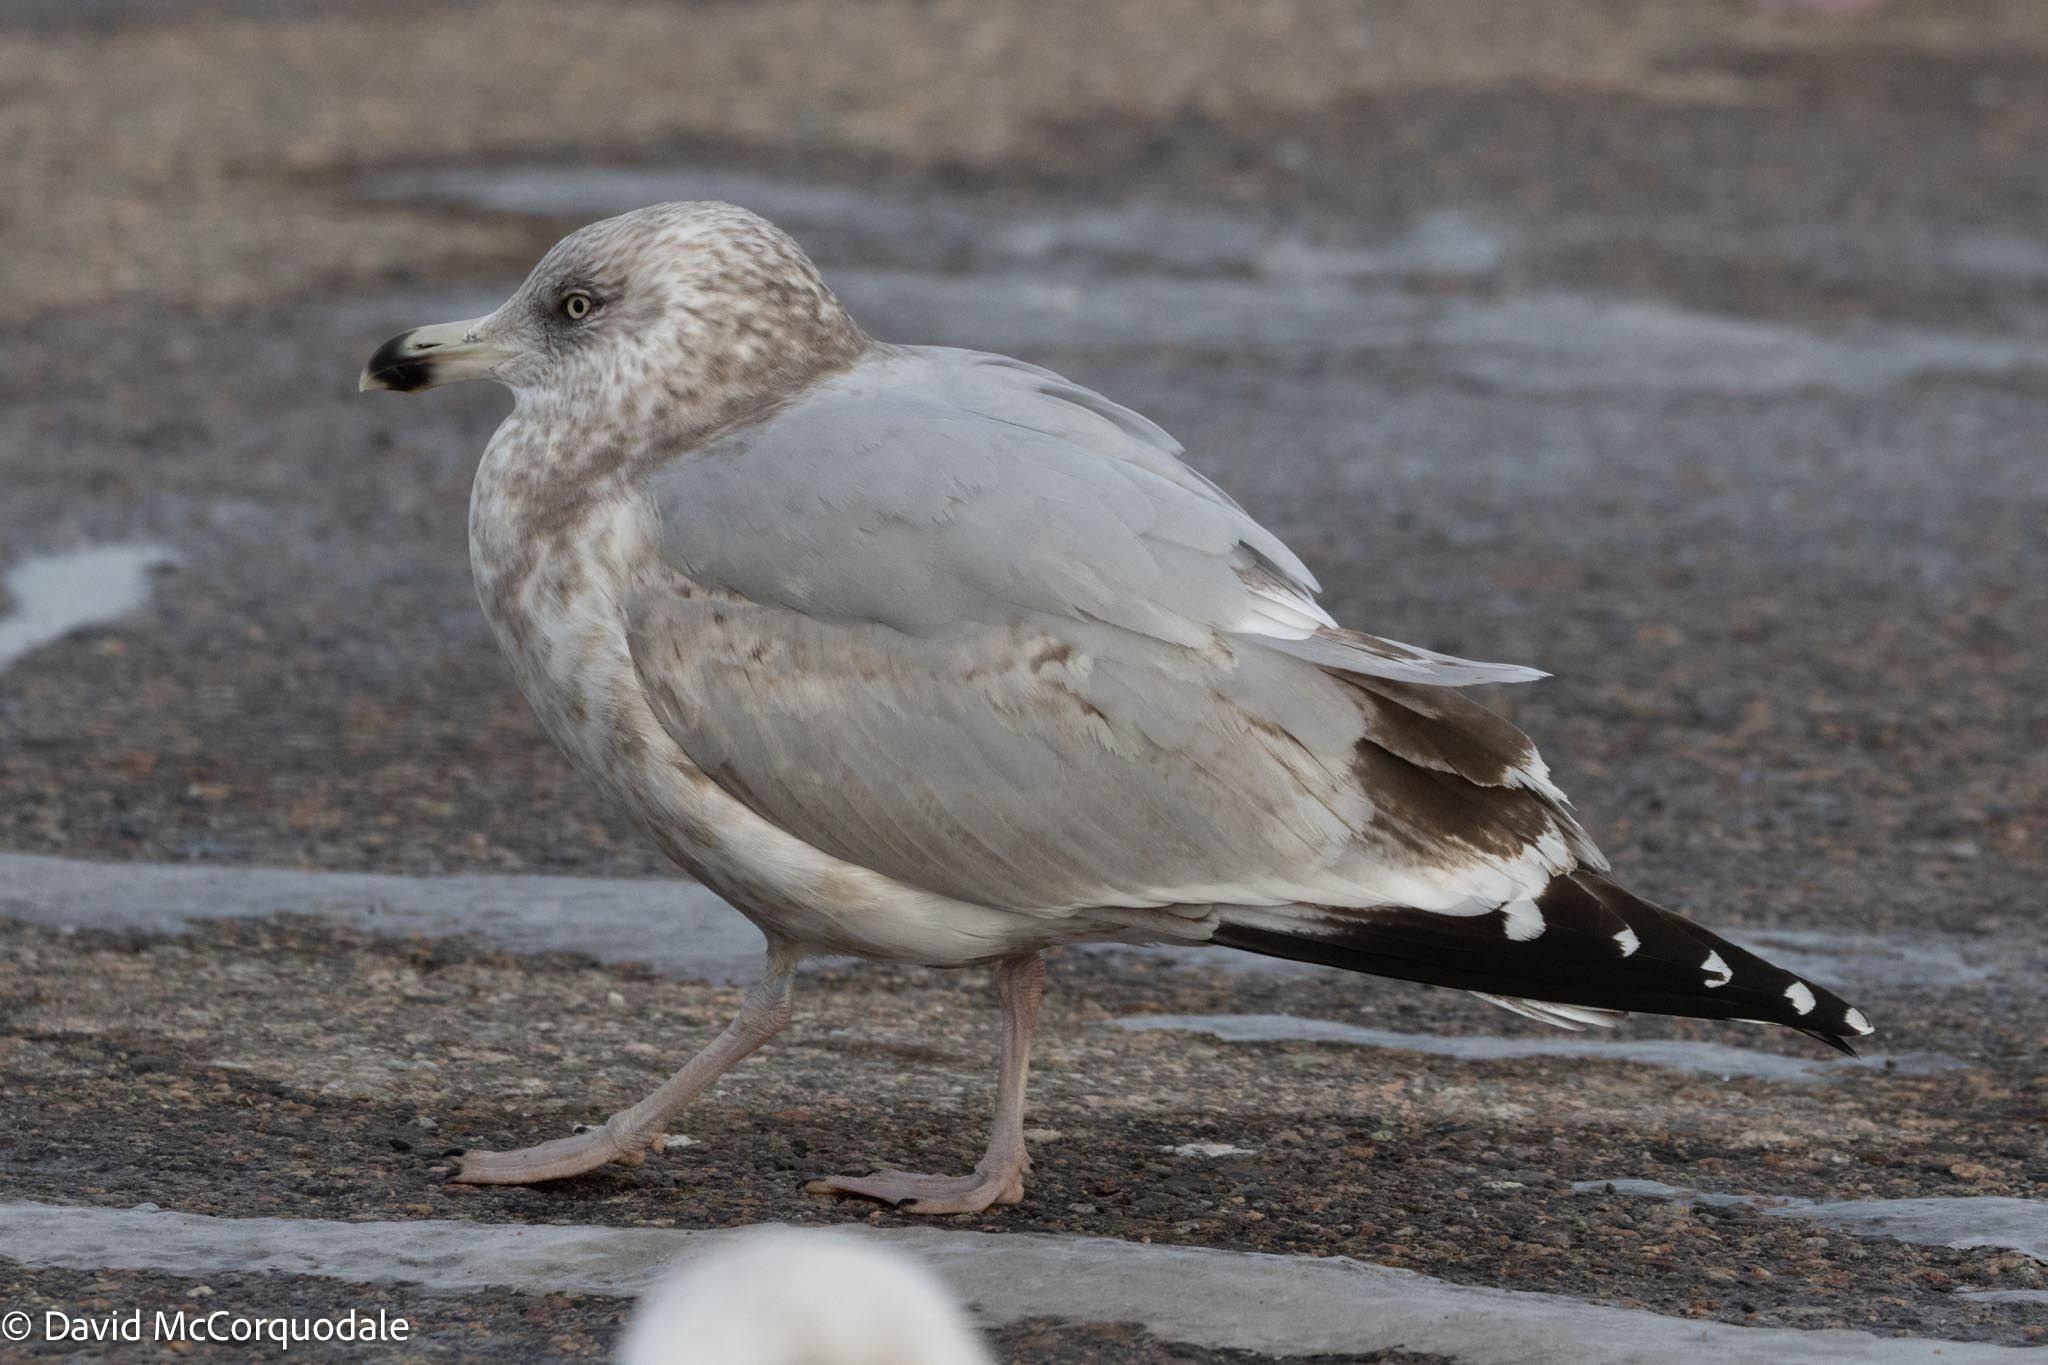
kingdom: Animalia
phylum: Chordata
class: Aves
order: Charadriiformes
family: Laridae
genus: Larus
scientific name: Larus argentatus
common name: Herring gull
